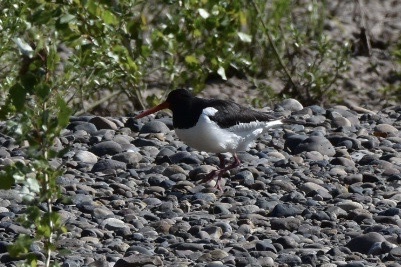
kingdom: Animalia
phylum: Chordata
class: Aves
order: Charadriiformes
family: Haematopodidae
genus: Haematopus
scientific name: Haematopus ostralegus
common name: Eurasian oystercatcher
